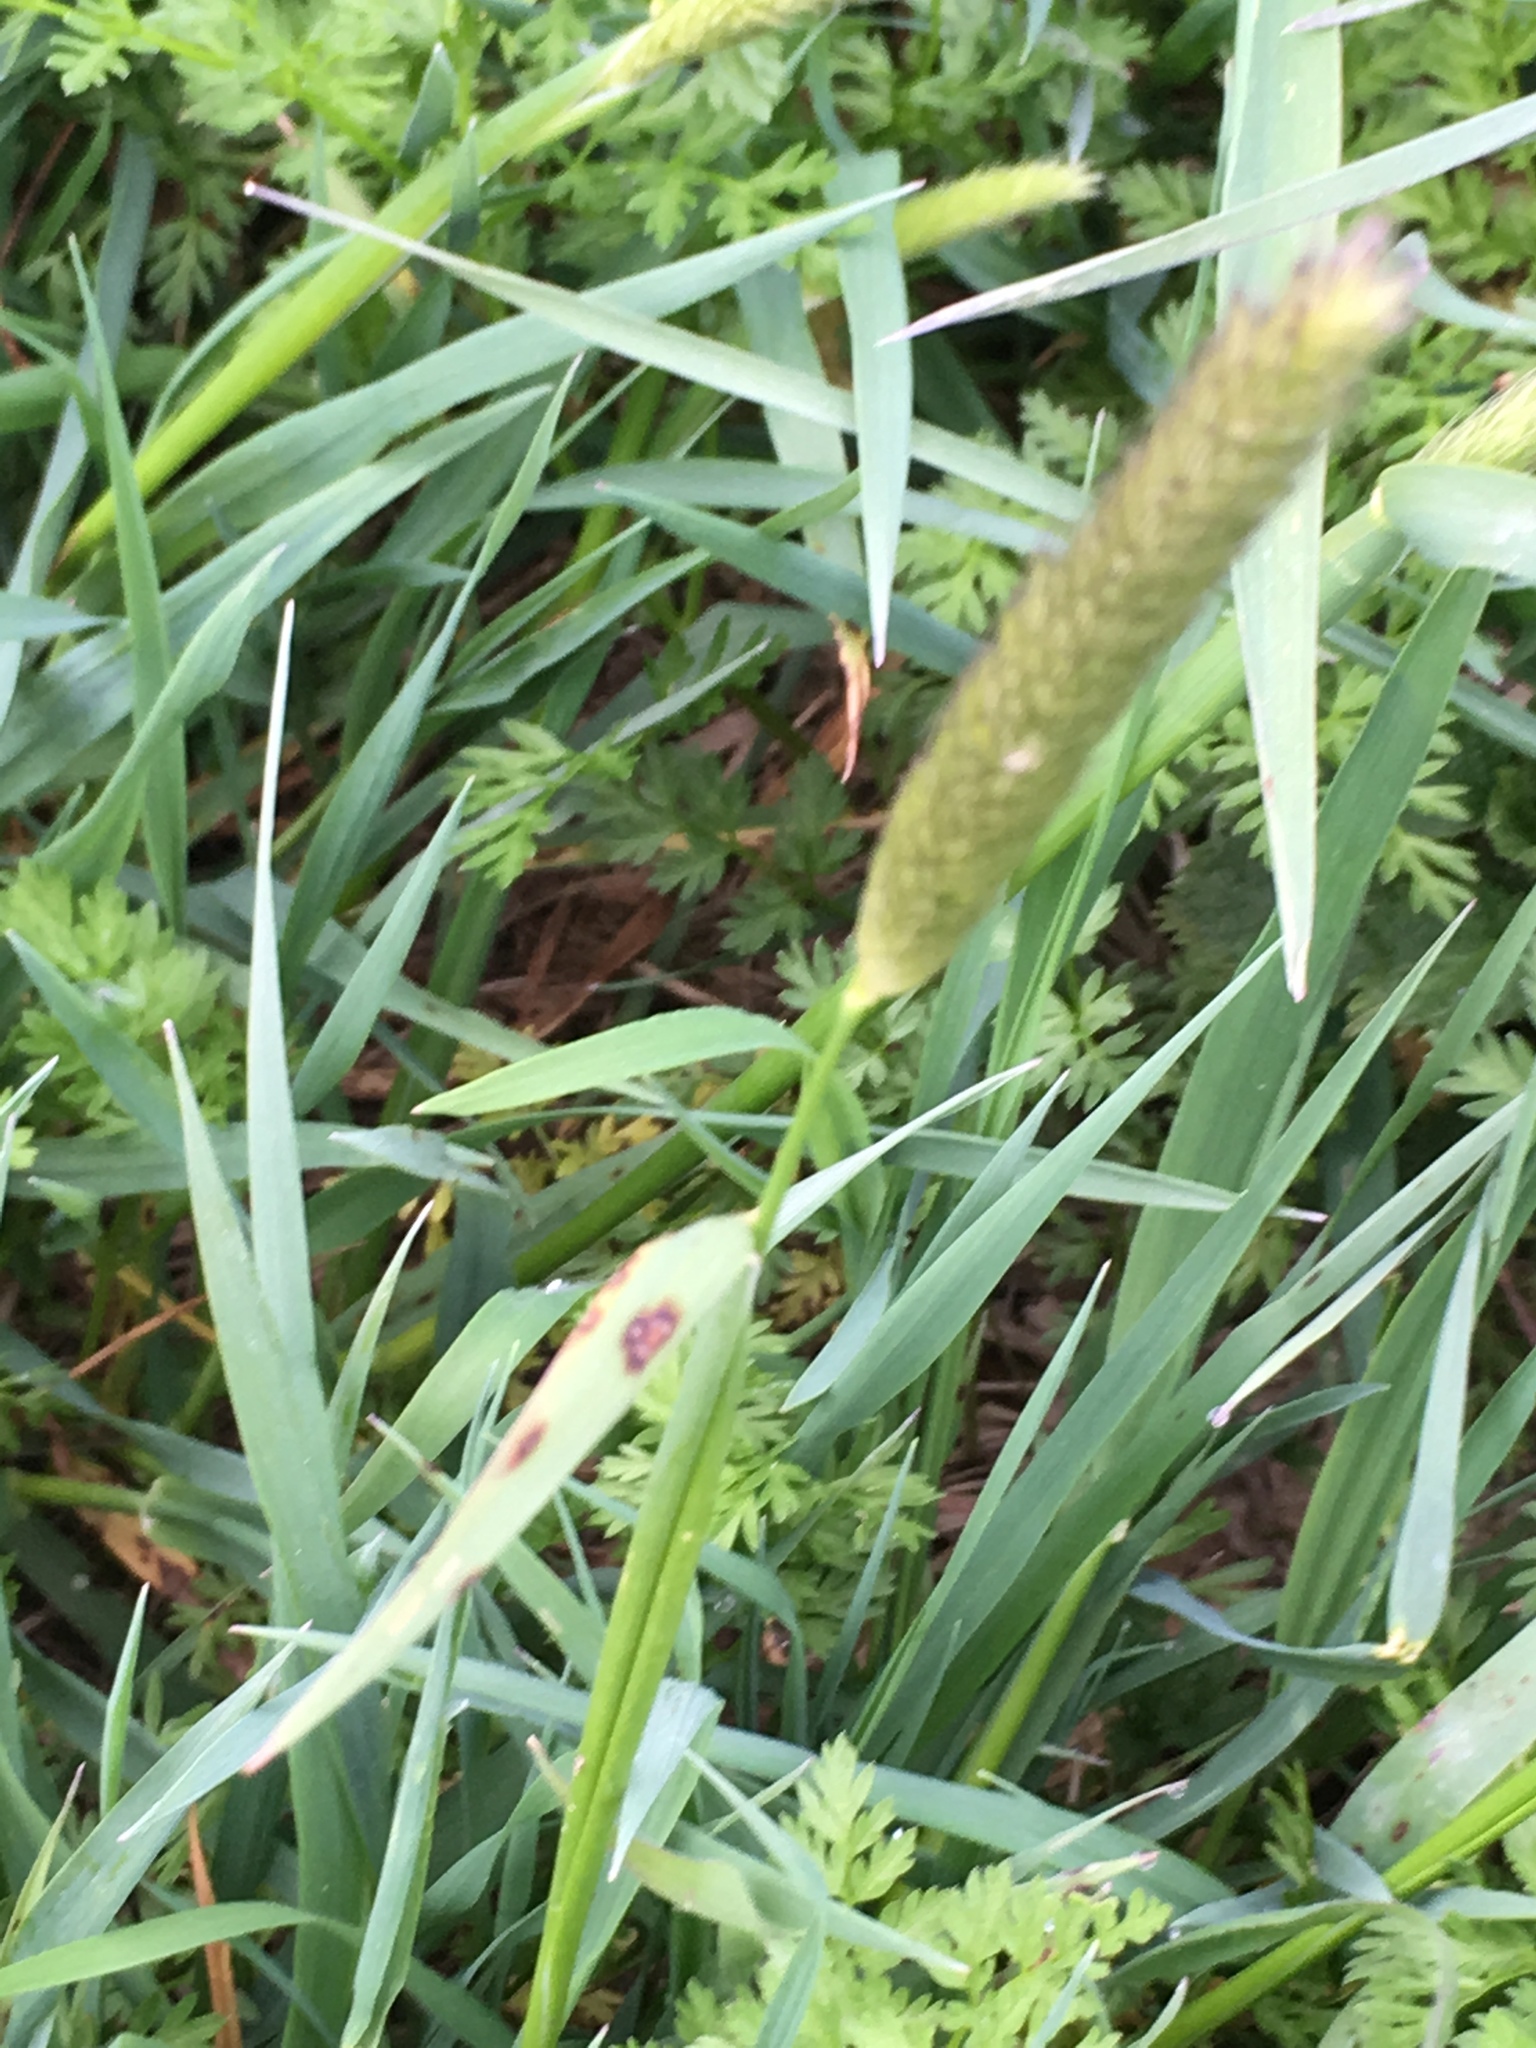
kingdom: Plantae
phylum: Tracheophyta
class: Liliopsida
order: Poales
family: Poaceae
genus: Alopecurus
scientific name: Alopecurus pratensis
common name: Meadow foxtail
